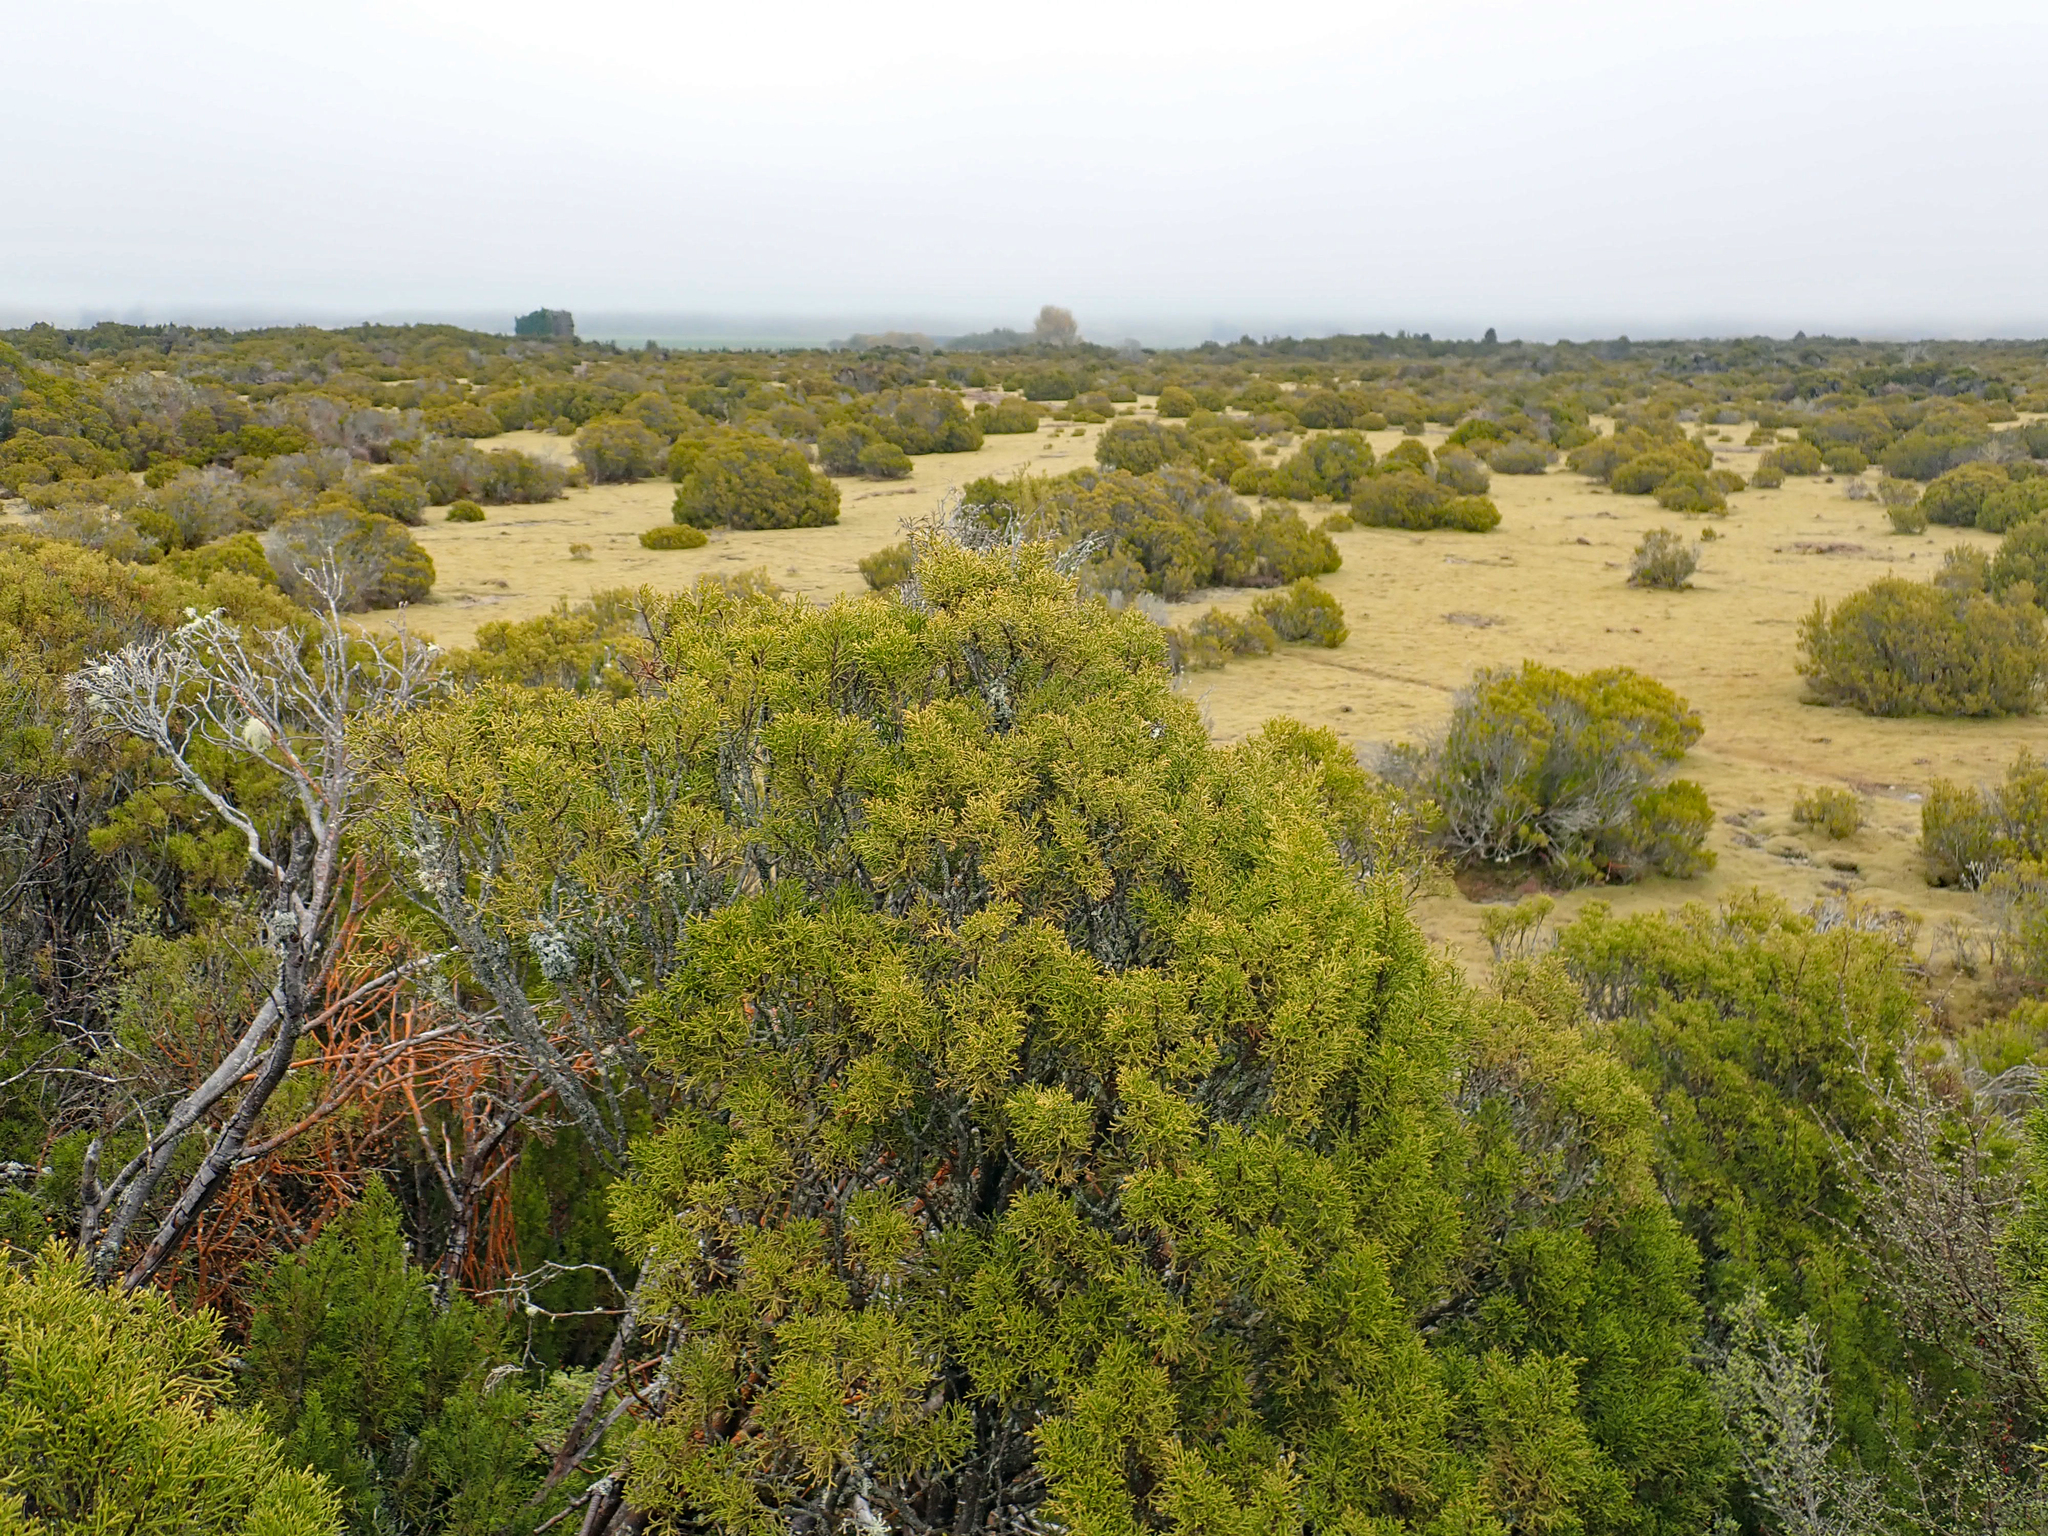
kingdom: Plantae
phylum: Tracheophyta
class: Pinopsida
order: Pinales
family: Podocarpaceae
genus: Halocarpus
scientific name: Halocarpus bidwillii
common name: Bog pine
